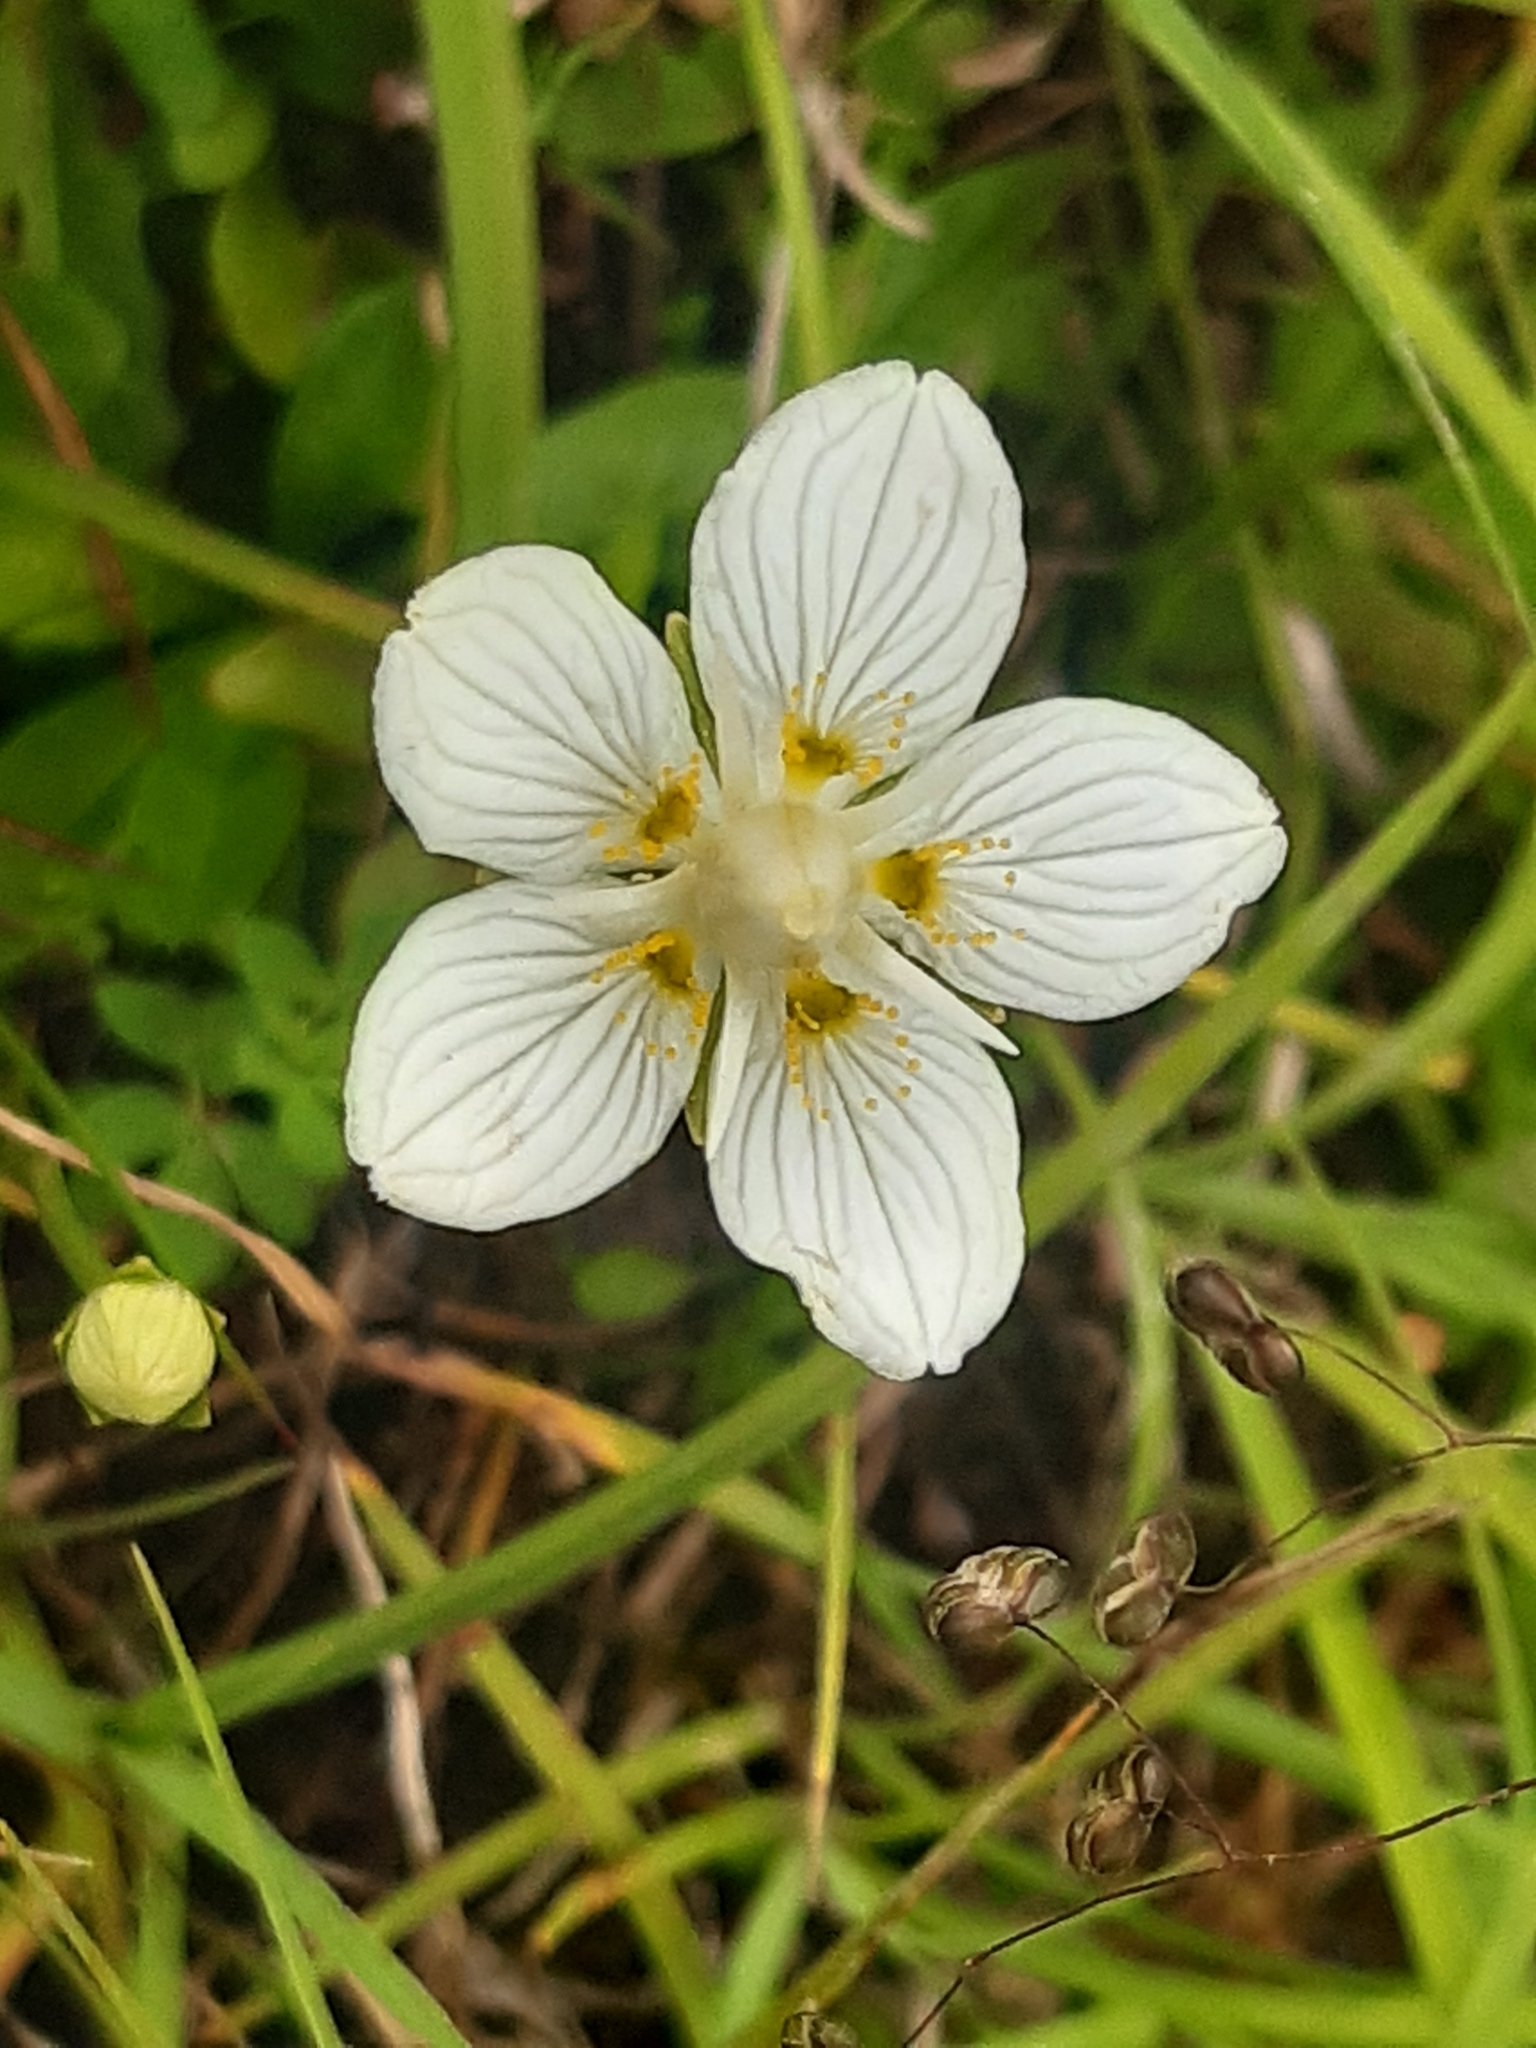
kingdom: Plantae
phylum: Tracheophyta
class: Magnoliopsida
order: Celastrales
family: Parnassiaceae
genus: Parnassia
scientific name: Parnassia palustris
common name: Grass-of-parnassus
